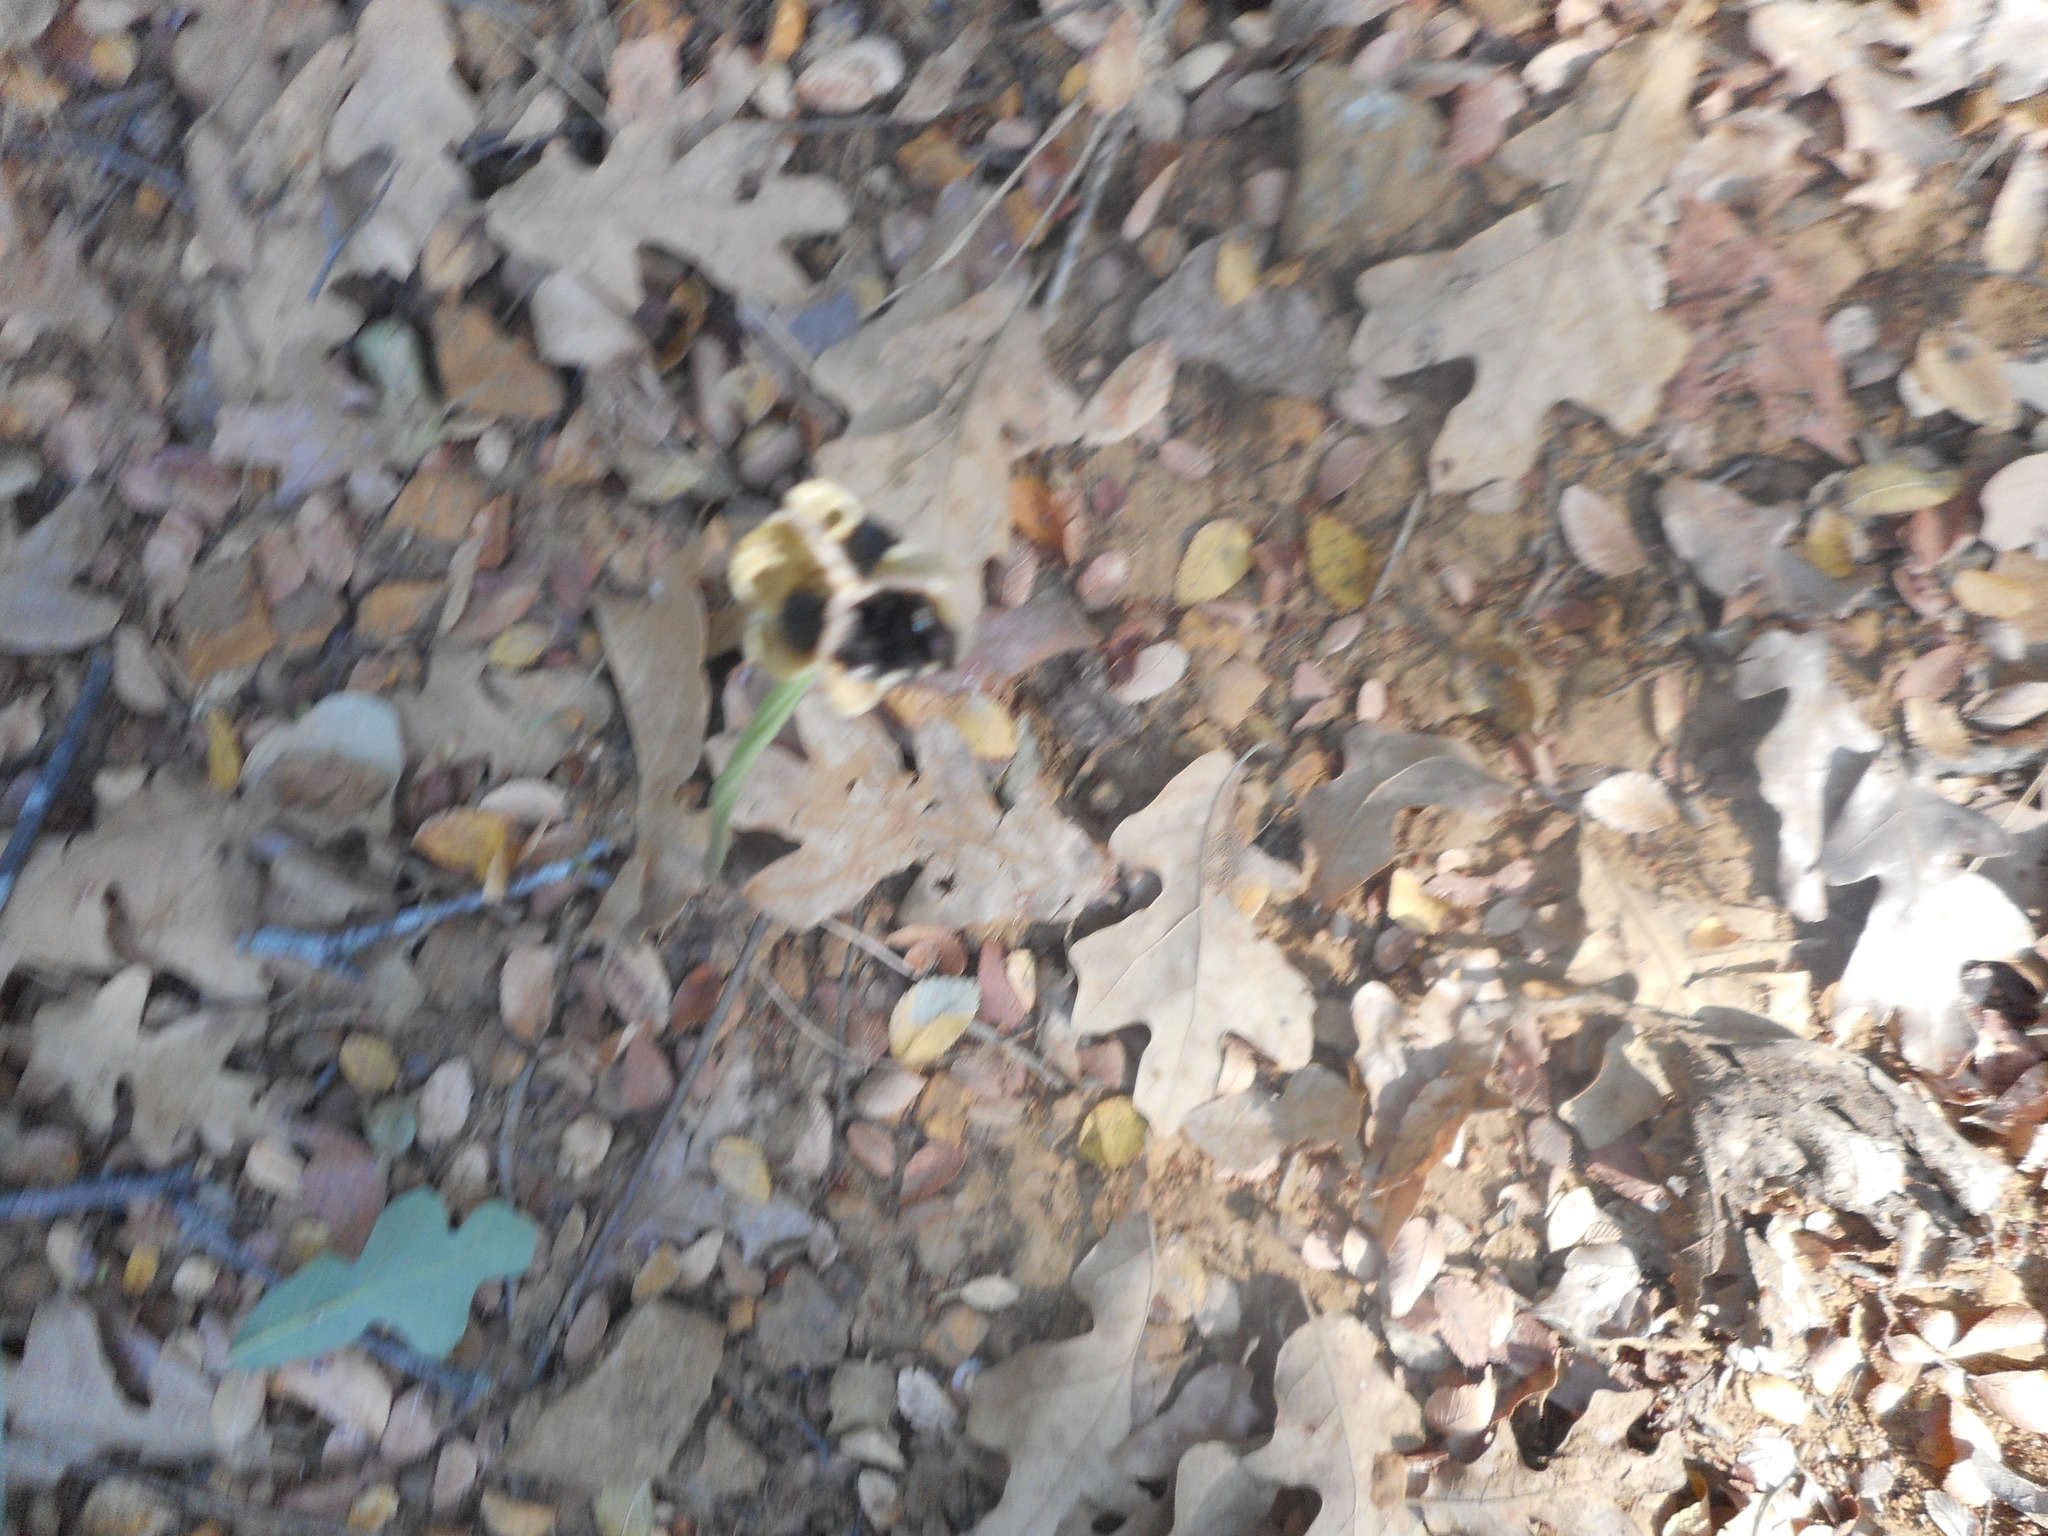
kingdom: Plantae
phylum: Tracheophyta
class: Liliopsida
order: Asparagales
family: Amaryllidaceae
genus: Zephyranthes
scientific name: Zephyranthes chlorosolen
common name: Evening rain-lily
